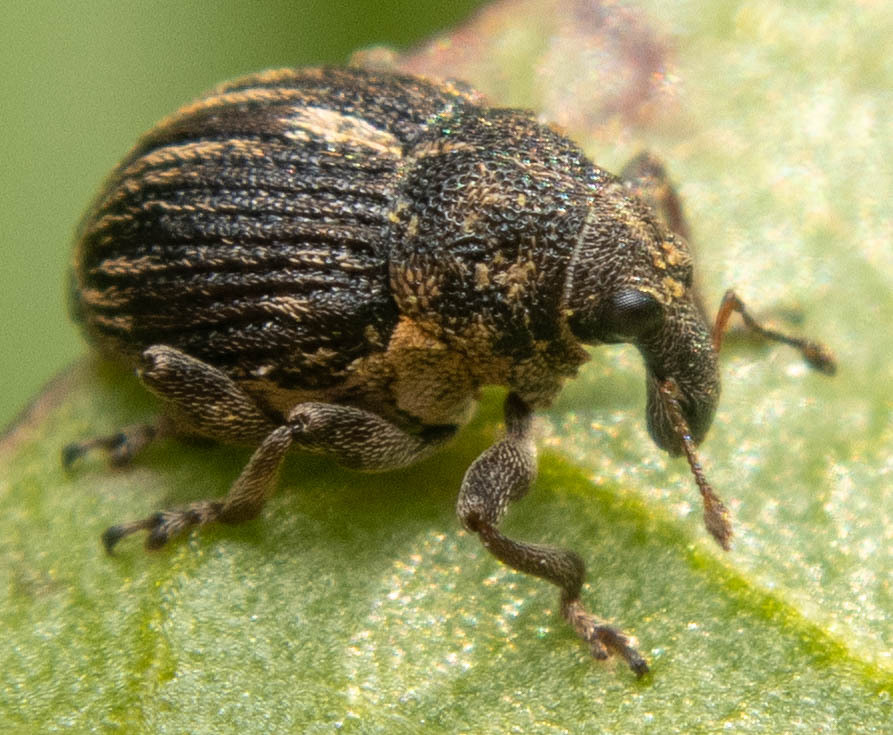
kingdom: Animalia
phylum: Arthropoda
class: Insecta
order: Coleoptera
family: Curculionidae
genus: Rhinoncus
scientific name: Rhinoncus leucostigma
